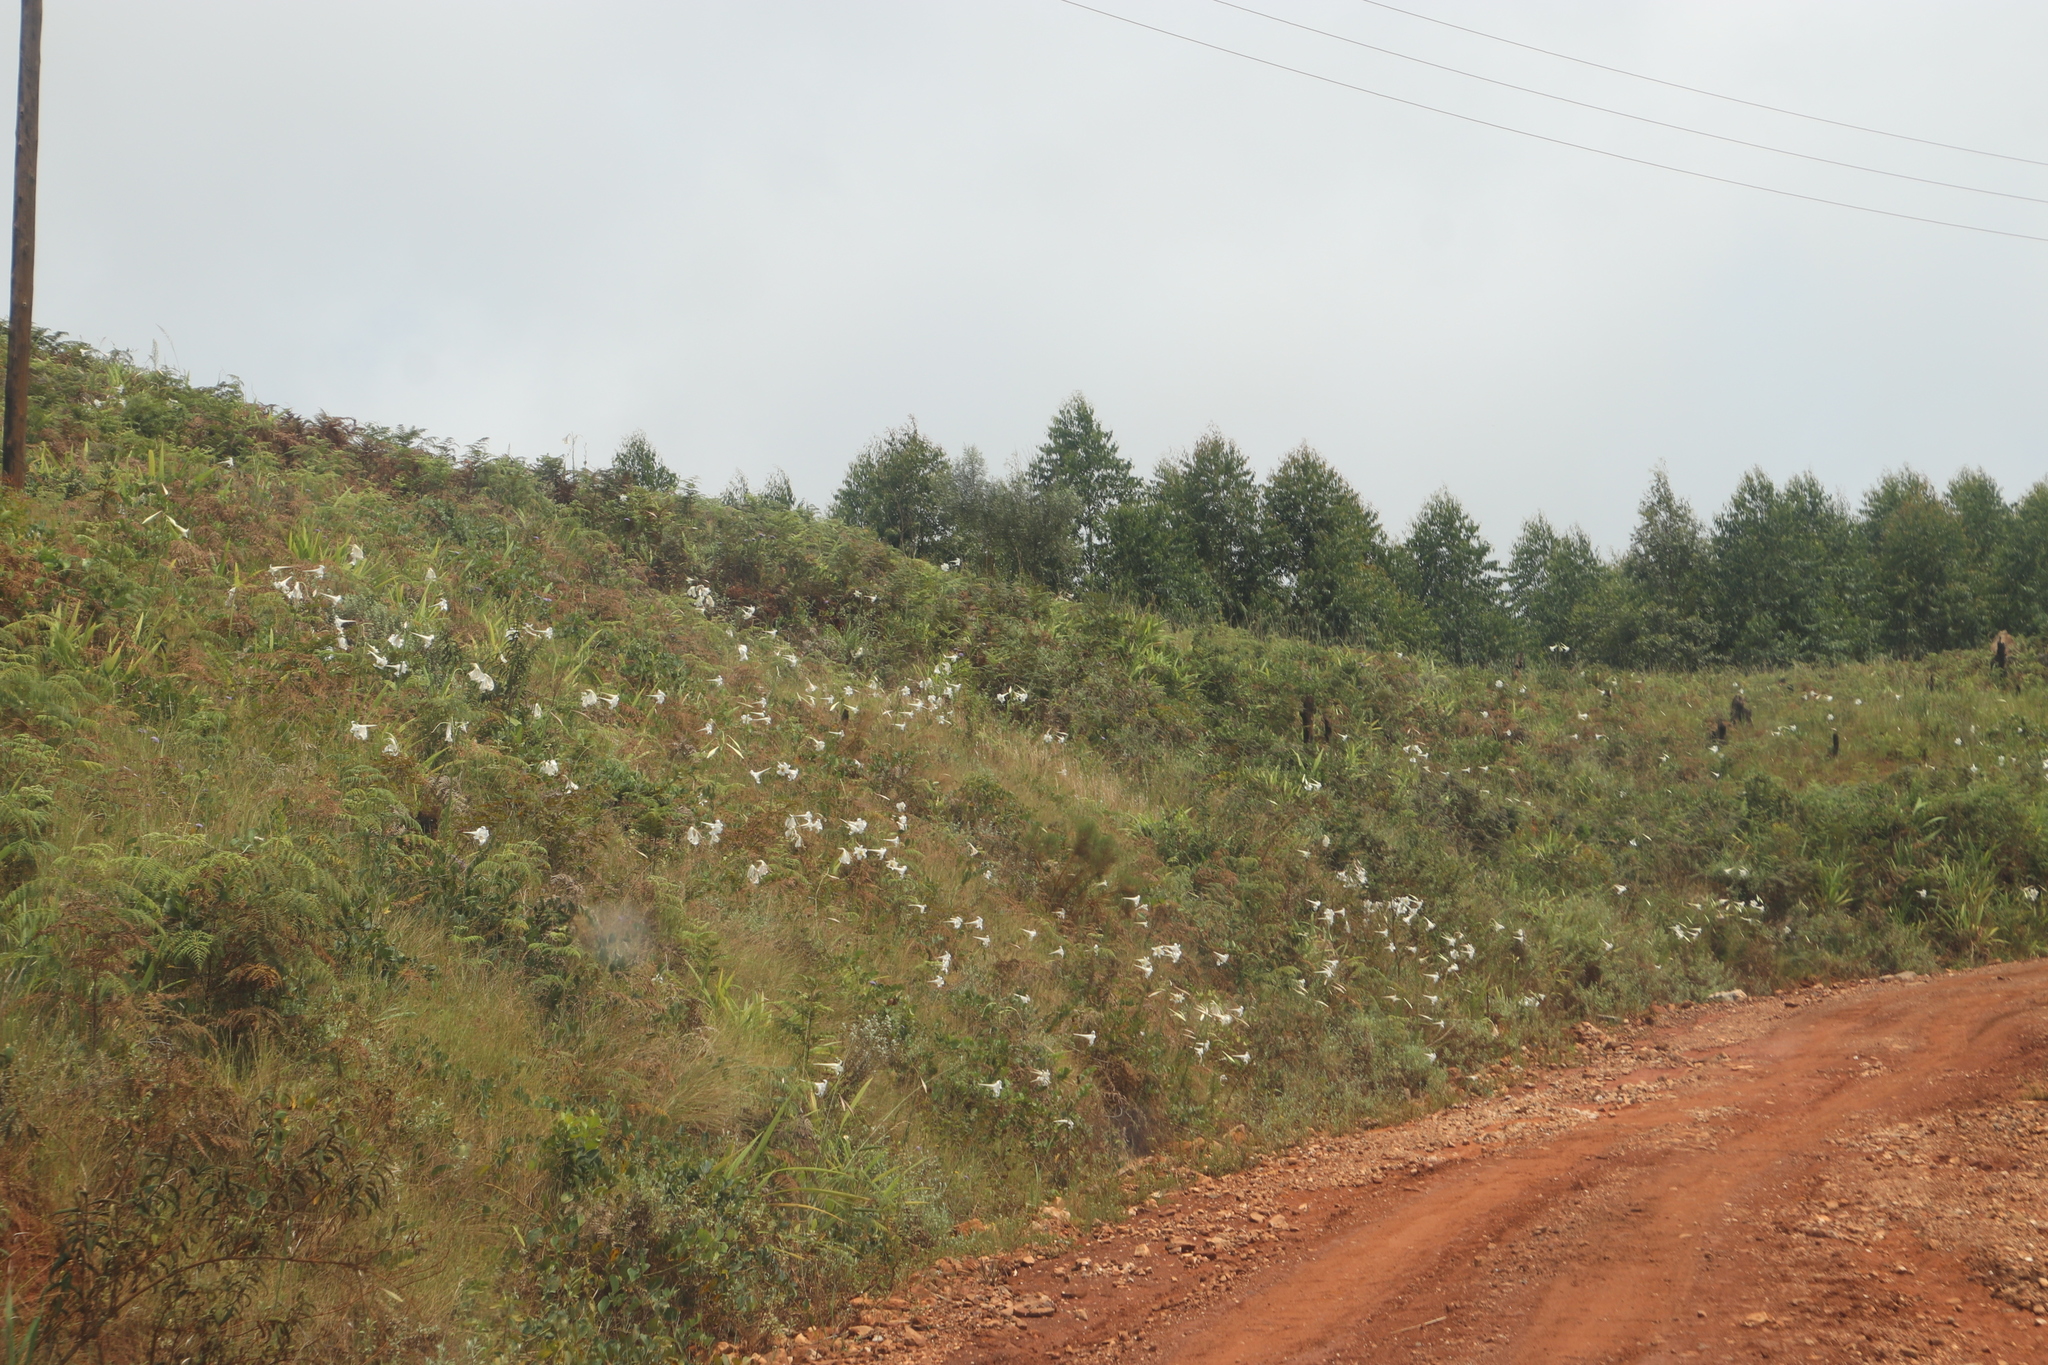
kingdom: Plantae
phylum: Tracheophyta
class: Liliopsida
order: Liliales
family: Liliaceae
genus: Lilium
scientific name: Lilium formosanum
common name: Formosa lily
